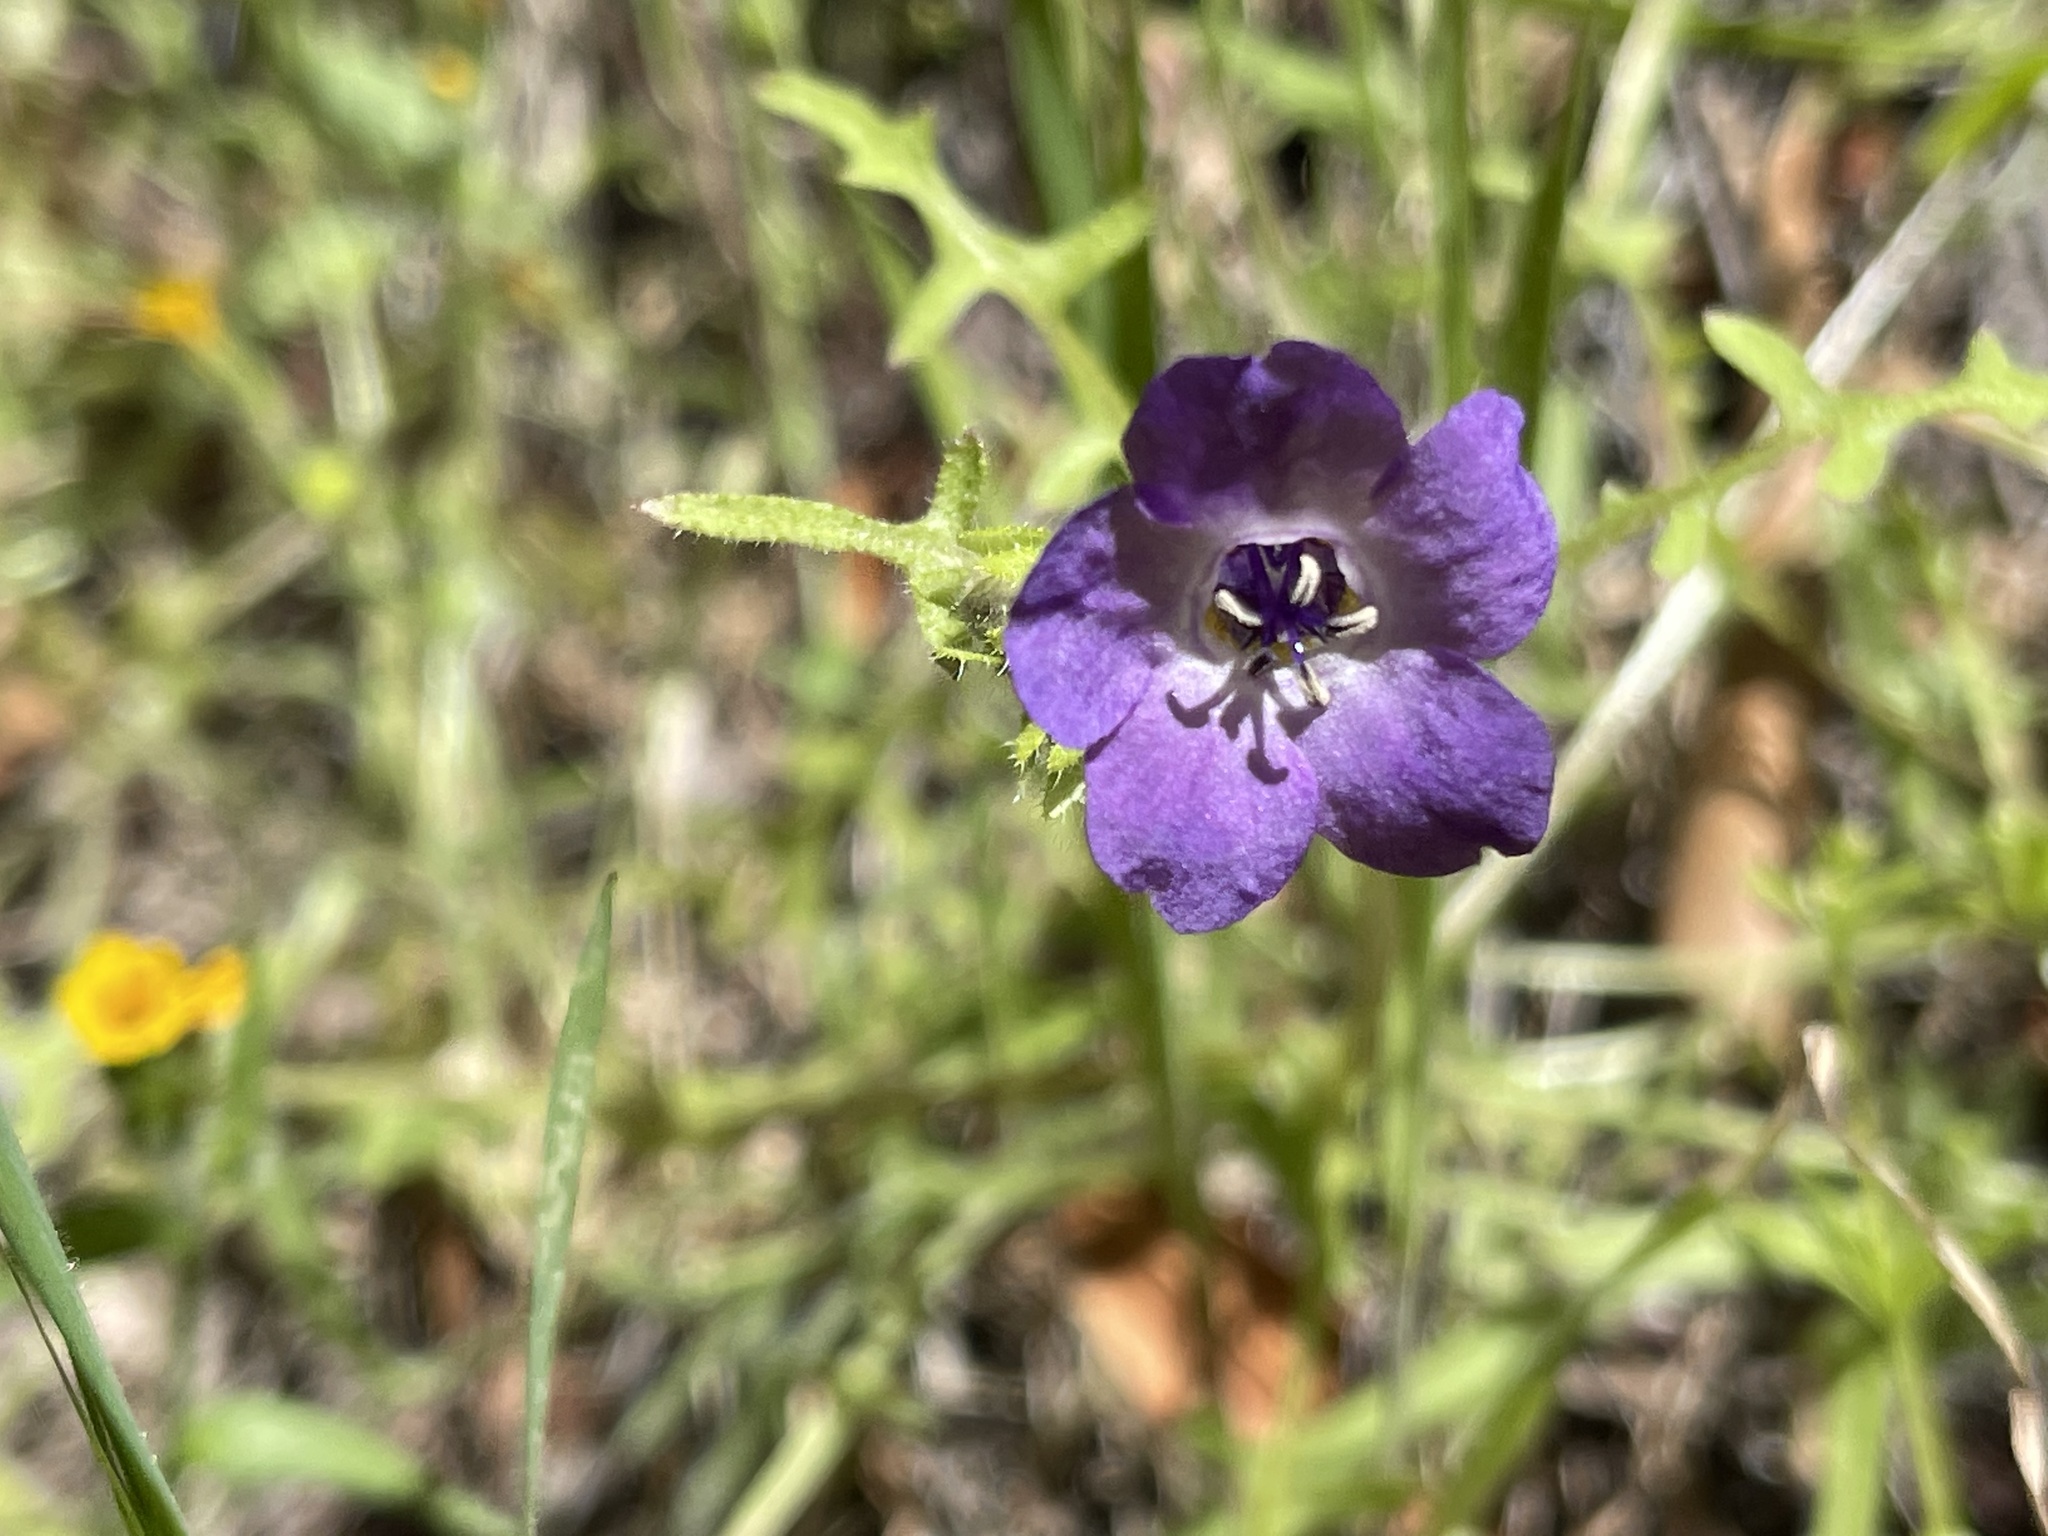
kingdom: Plantae
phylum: Tracheophyta
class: Magnoliopsida
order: Boraginales
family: Hydrophyllaceae
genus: Pholistoma
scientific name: Pholistoma auritum
